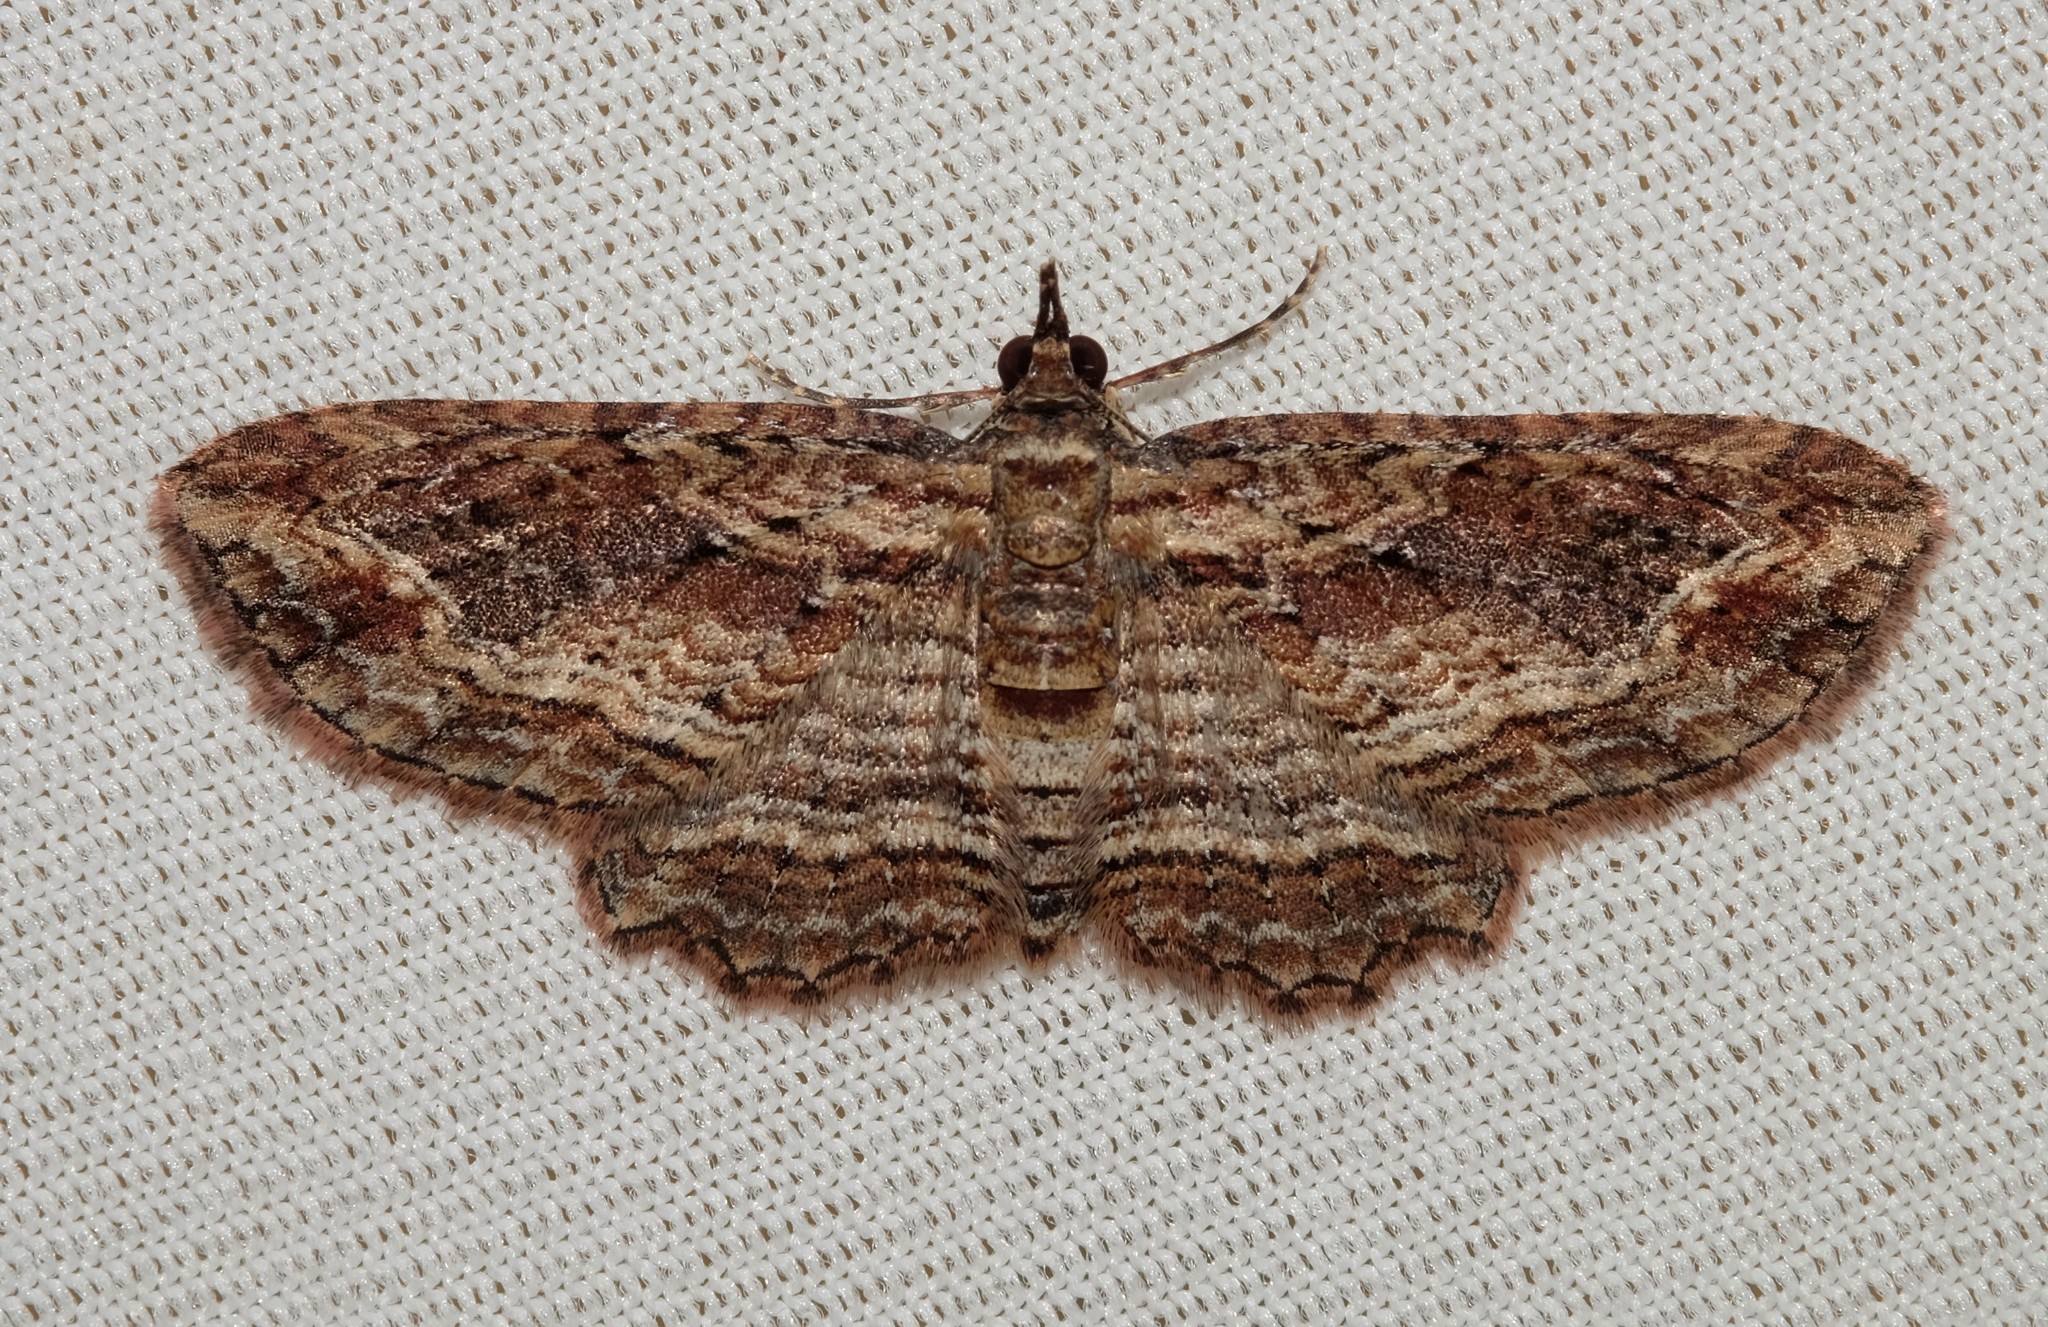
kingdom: Animalia
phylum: Arthropoda
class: Insecta
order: Lepidoptera
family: Geometridae
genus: Chloroclystis
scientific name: Chloroclystis filata
